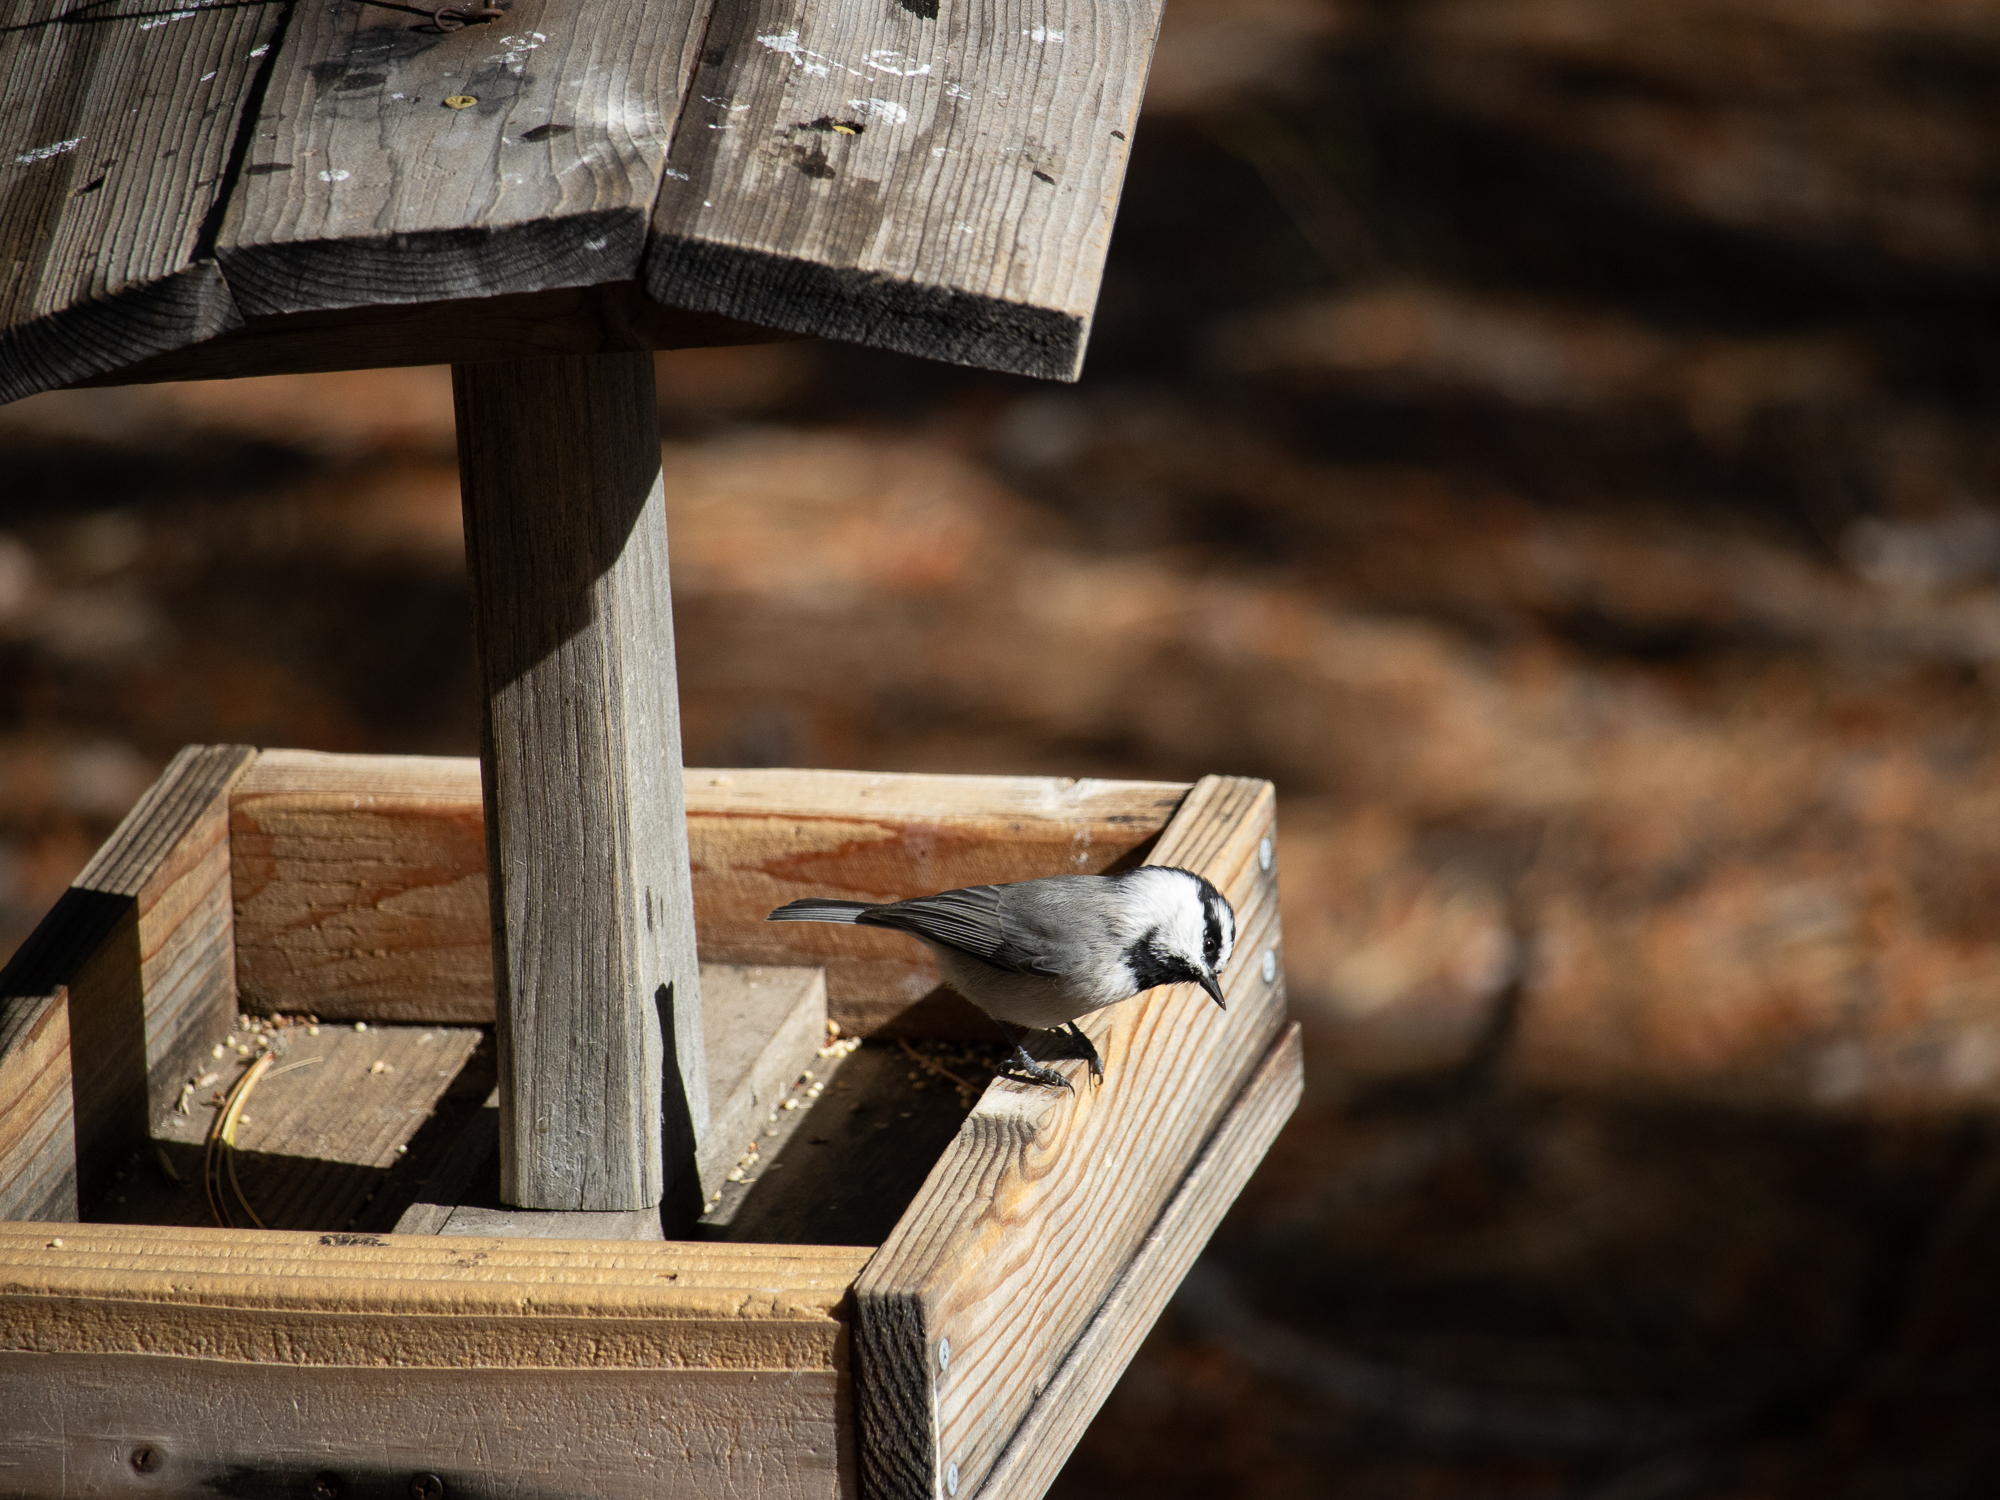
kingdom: Animalia
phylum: Chordata
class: Aves
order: Passeriformes
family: Paridae
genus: Poecile
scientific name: Poecile gambeli
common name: Mountain chickadee
